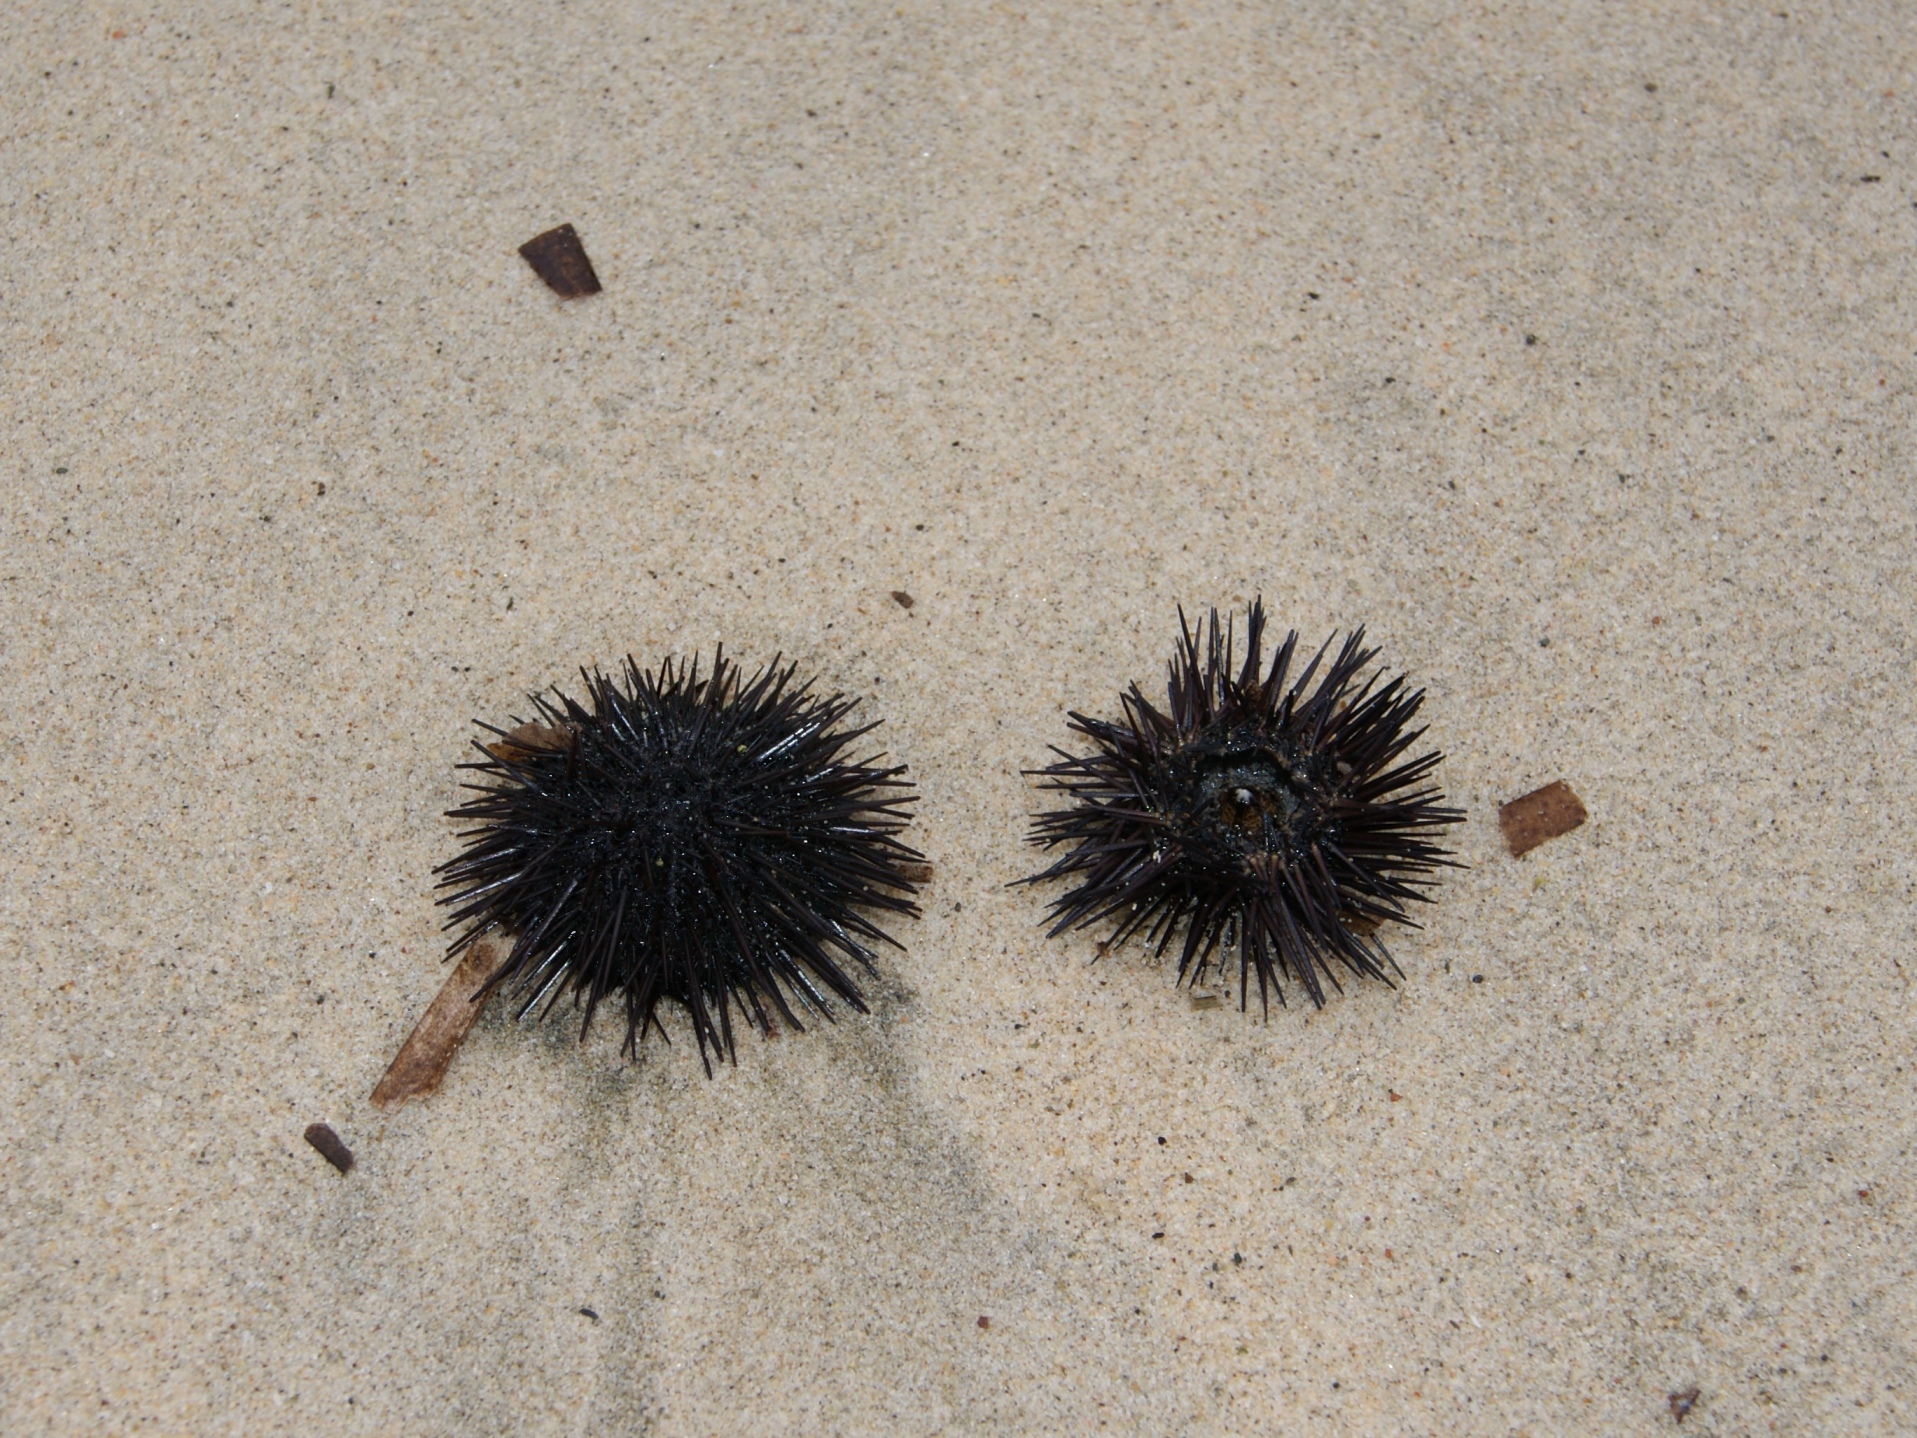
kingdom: Animalia
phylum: Echinodermata
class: Echinoidea
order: Arbacioida
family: Arbaciidae
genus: Arbacia
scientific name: Arbacia lixula
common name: Black sea urchin
